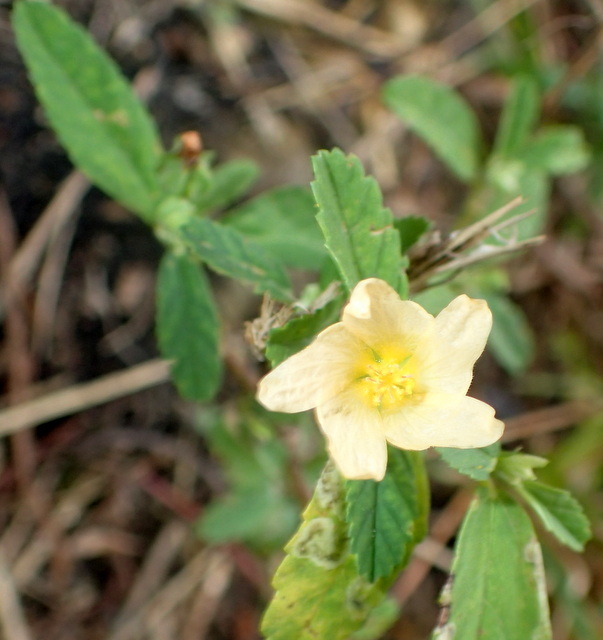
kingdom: Plantae
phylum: Tracheophyta
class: Magnoliopsida
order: Malvales
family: Malvaceae
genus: Sida
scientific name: Sida rhombifolia
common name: Queensland-hemp
